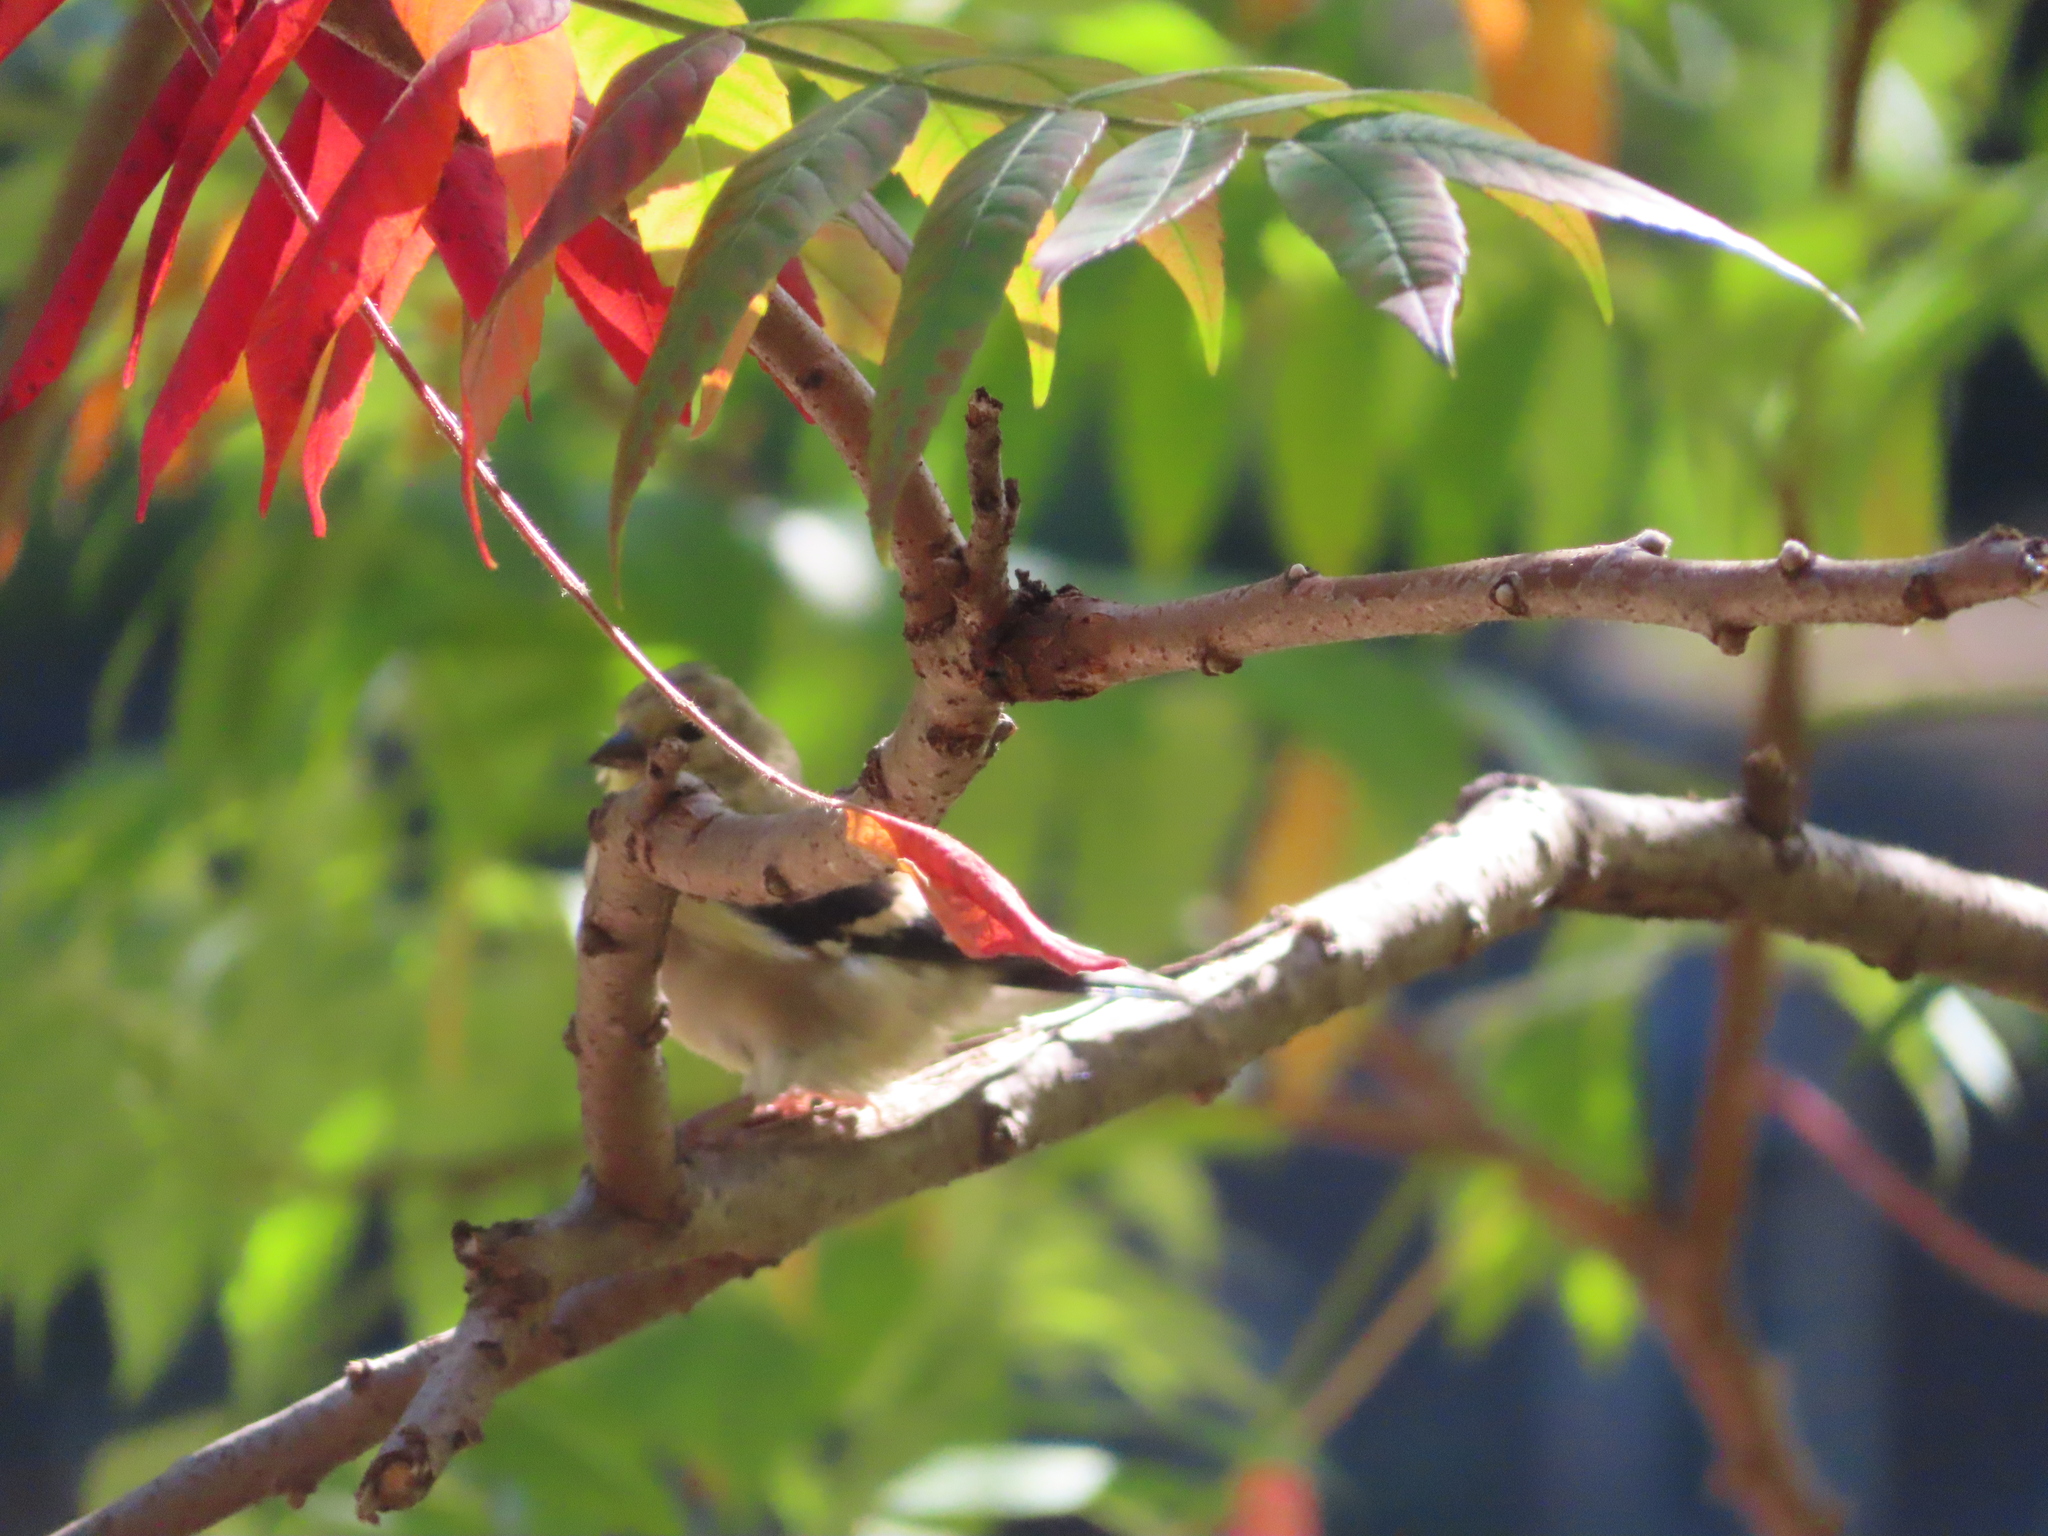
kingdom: Animalia
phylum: Chordata
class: Aves
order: Passeriformes
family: Fringillidae
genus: Spinus
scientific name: Spinus tristis
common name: American goldfinch
